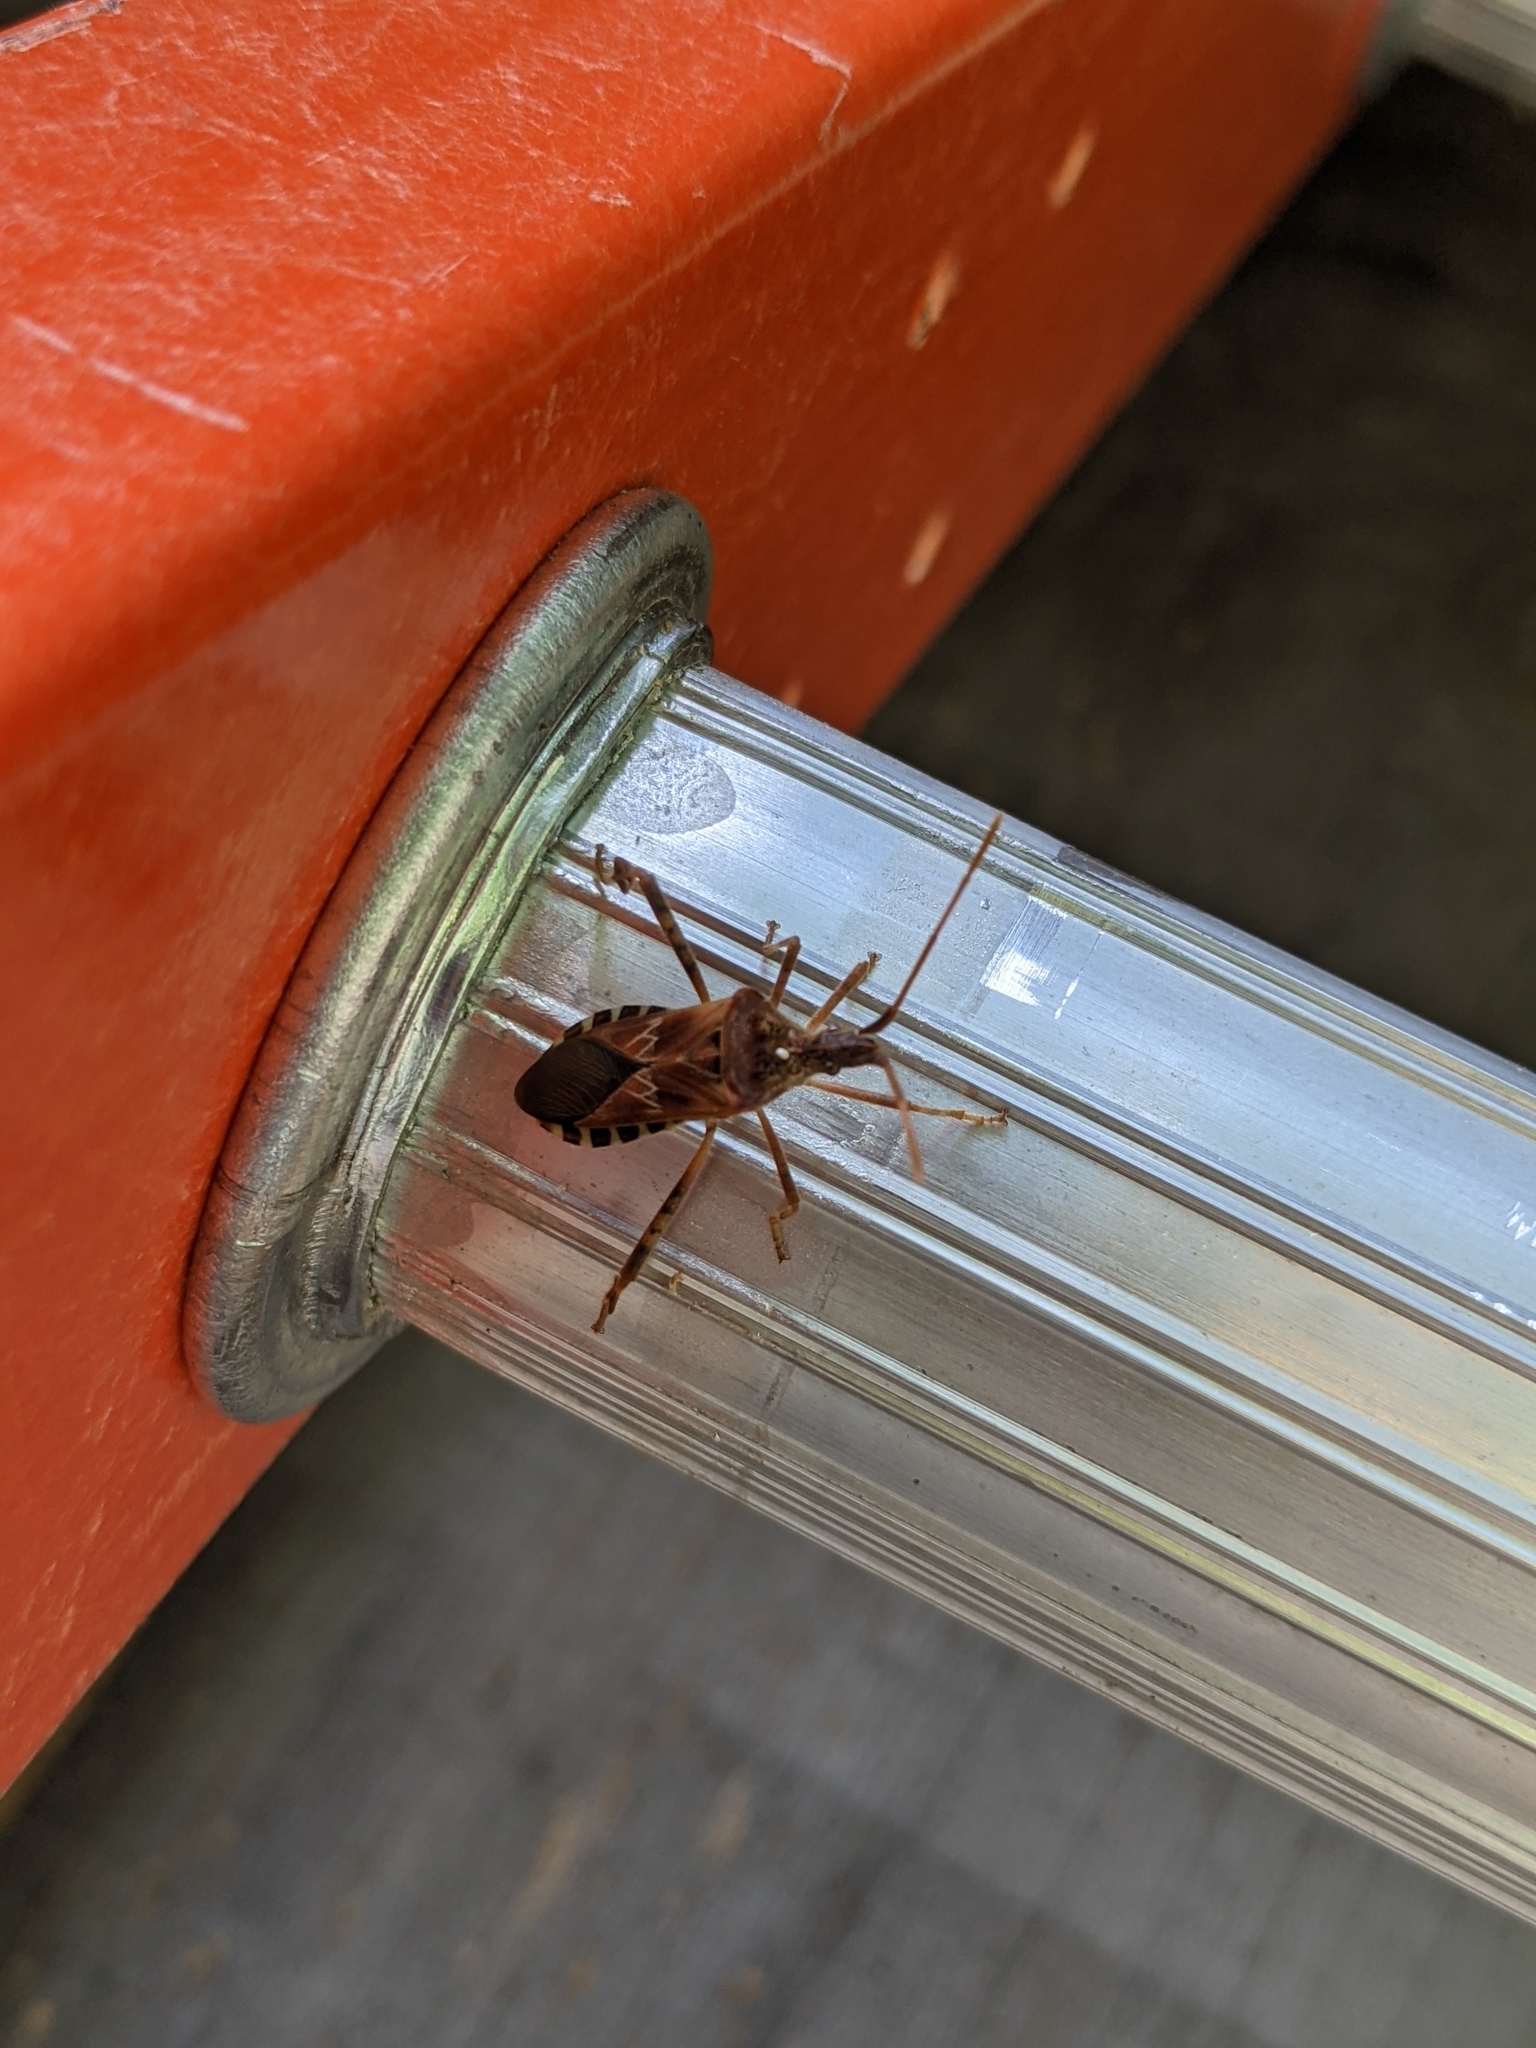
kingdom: Animalia
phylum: Arthropoda
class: Insecta
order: Hemiptera
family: Coreidae
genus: Leptoglossus
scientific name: Leptoglossus occidentalis
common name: Western conifer-seed bug
